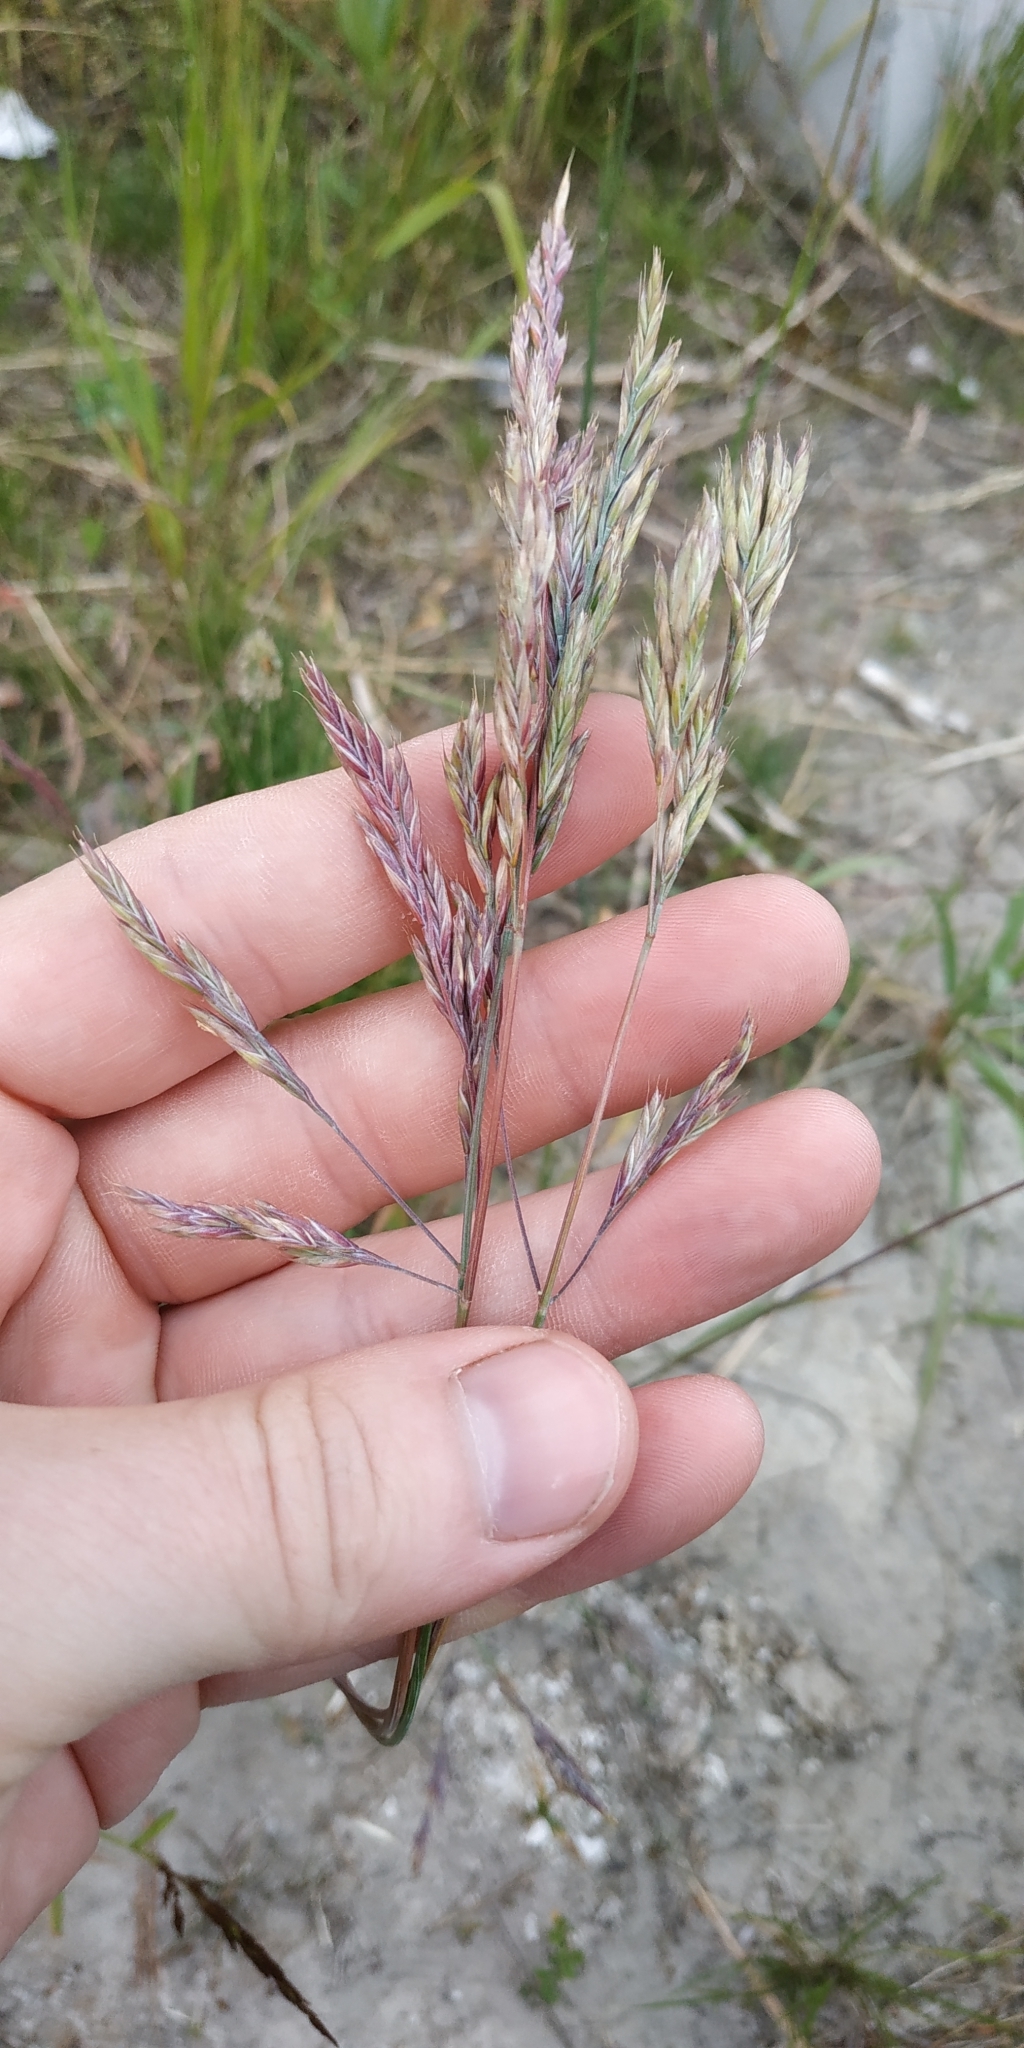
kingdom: Plantae
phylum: Tracheophyta
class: Liliopsida
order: Poales
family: Poaceae
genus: Festuca
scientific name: Festuca rubra
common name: Red fescue
